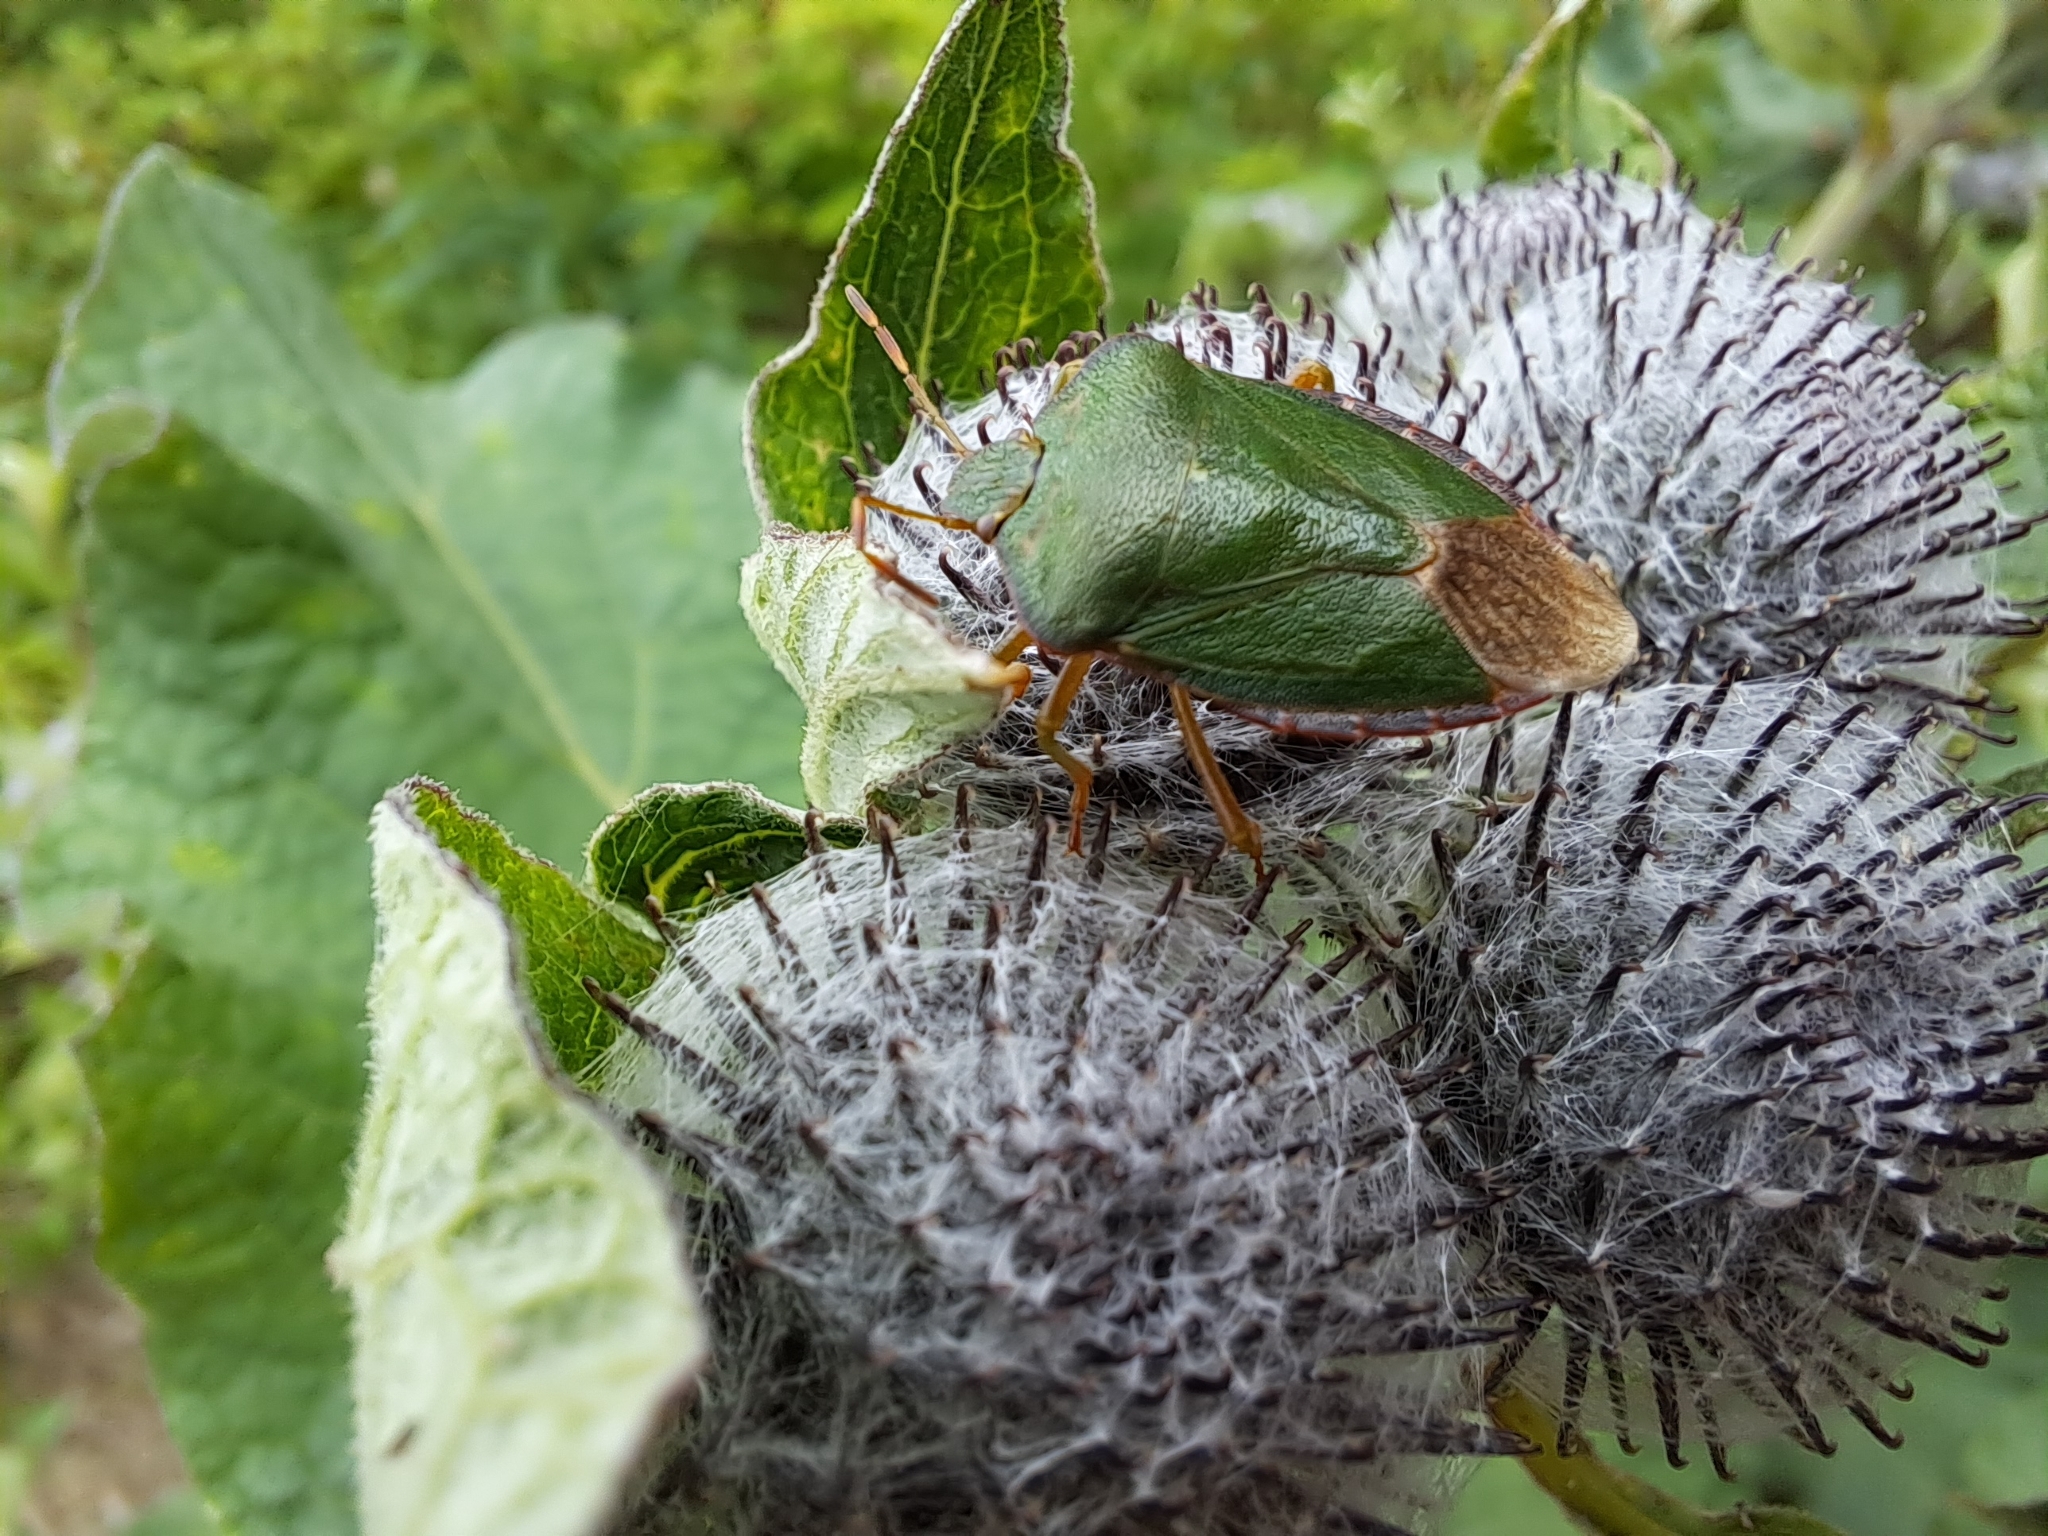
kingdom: Animalia
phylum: Arthropoda
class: Insecta
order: Hemiptera
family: Pentatomidae
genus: Palomena
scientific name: Palomena prasina
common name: Green shieldbug
